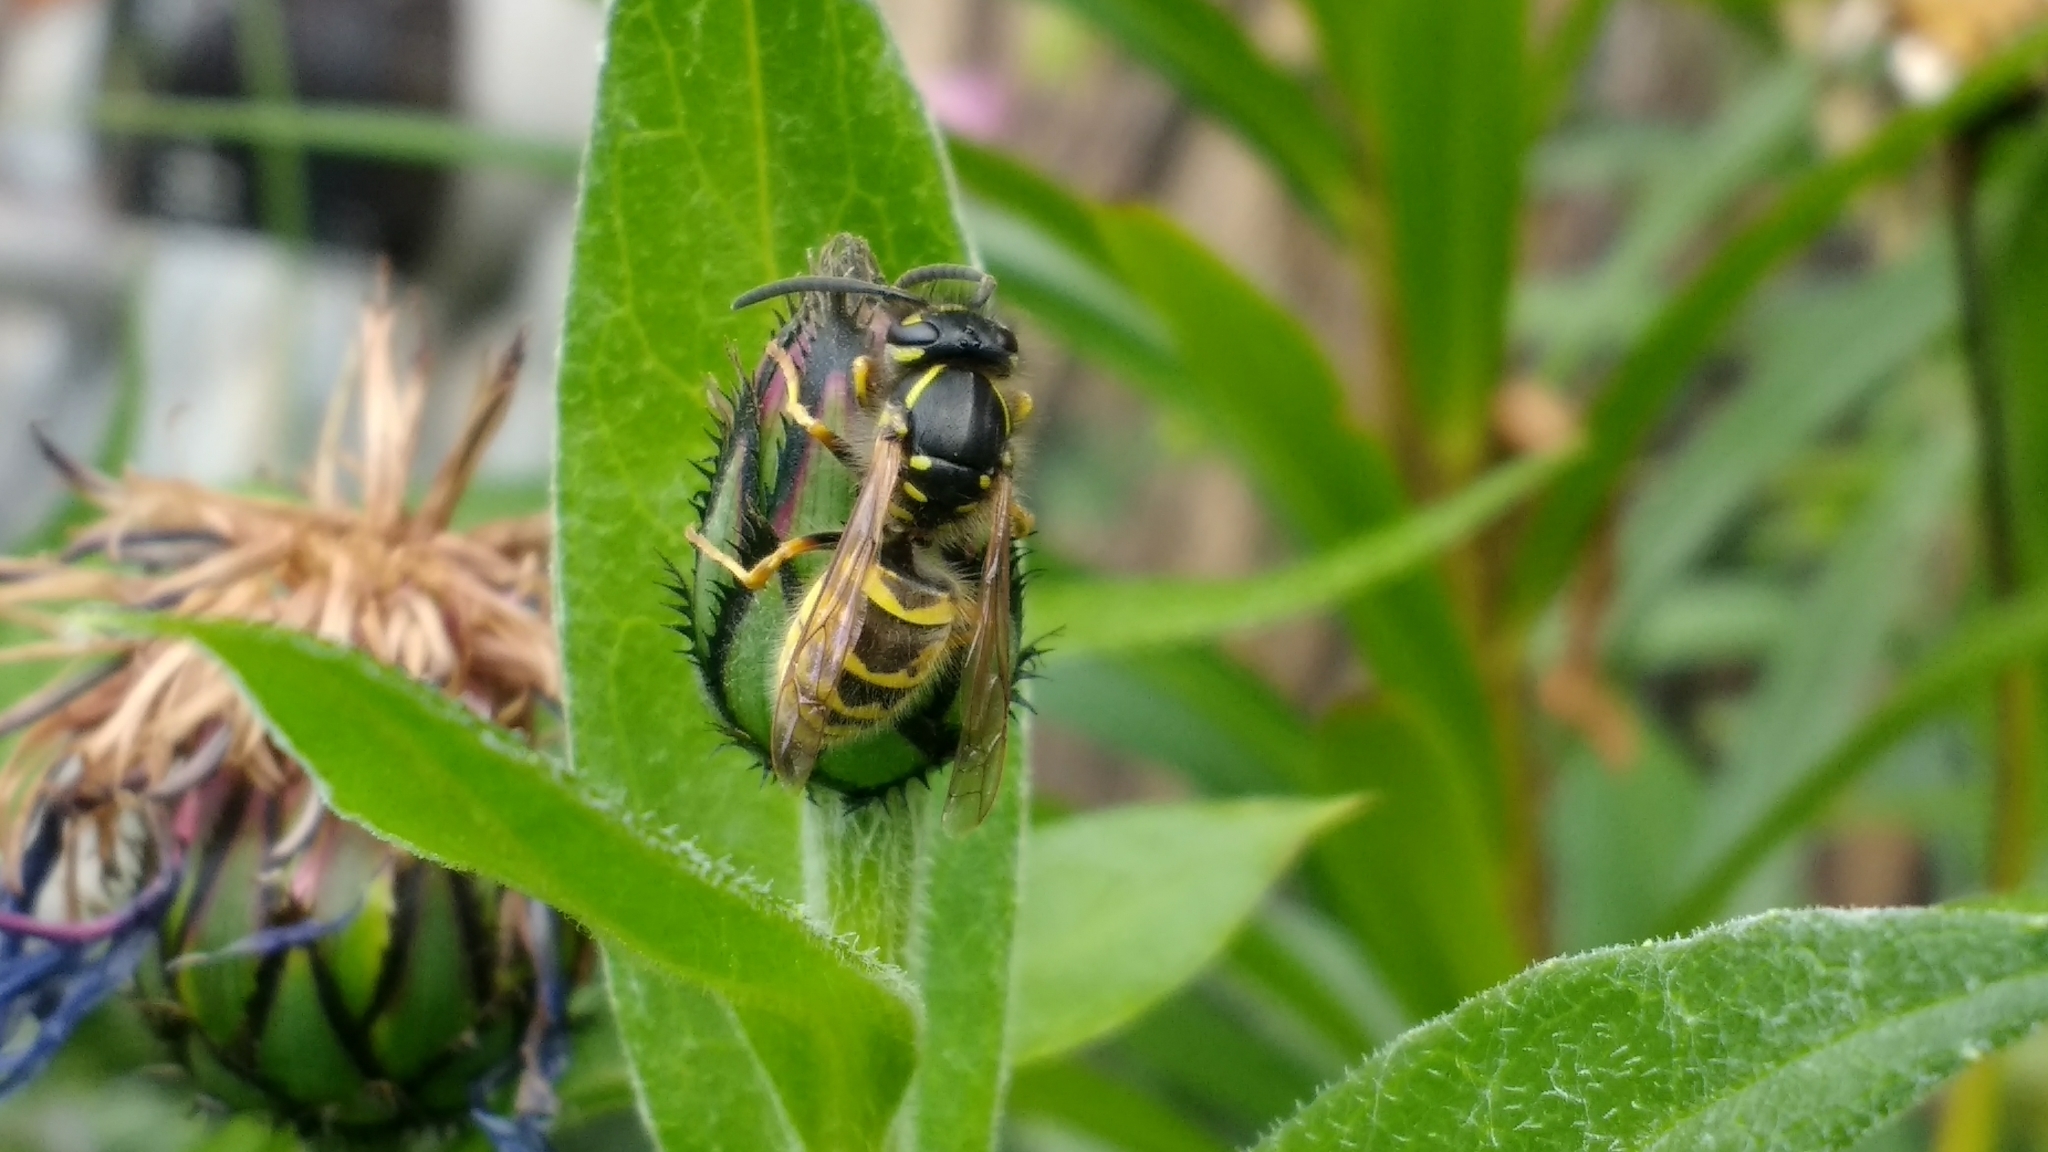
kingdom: Animalia
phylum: Arthropoda
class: Insecta
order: Hymenoptera
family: Vespidae
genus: Vespula
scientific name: Vespula vulgaris
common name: Common wasp
